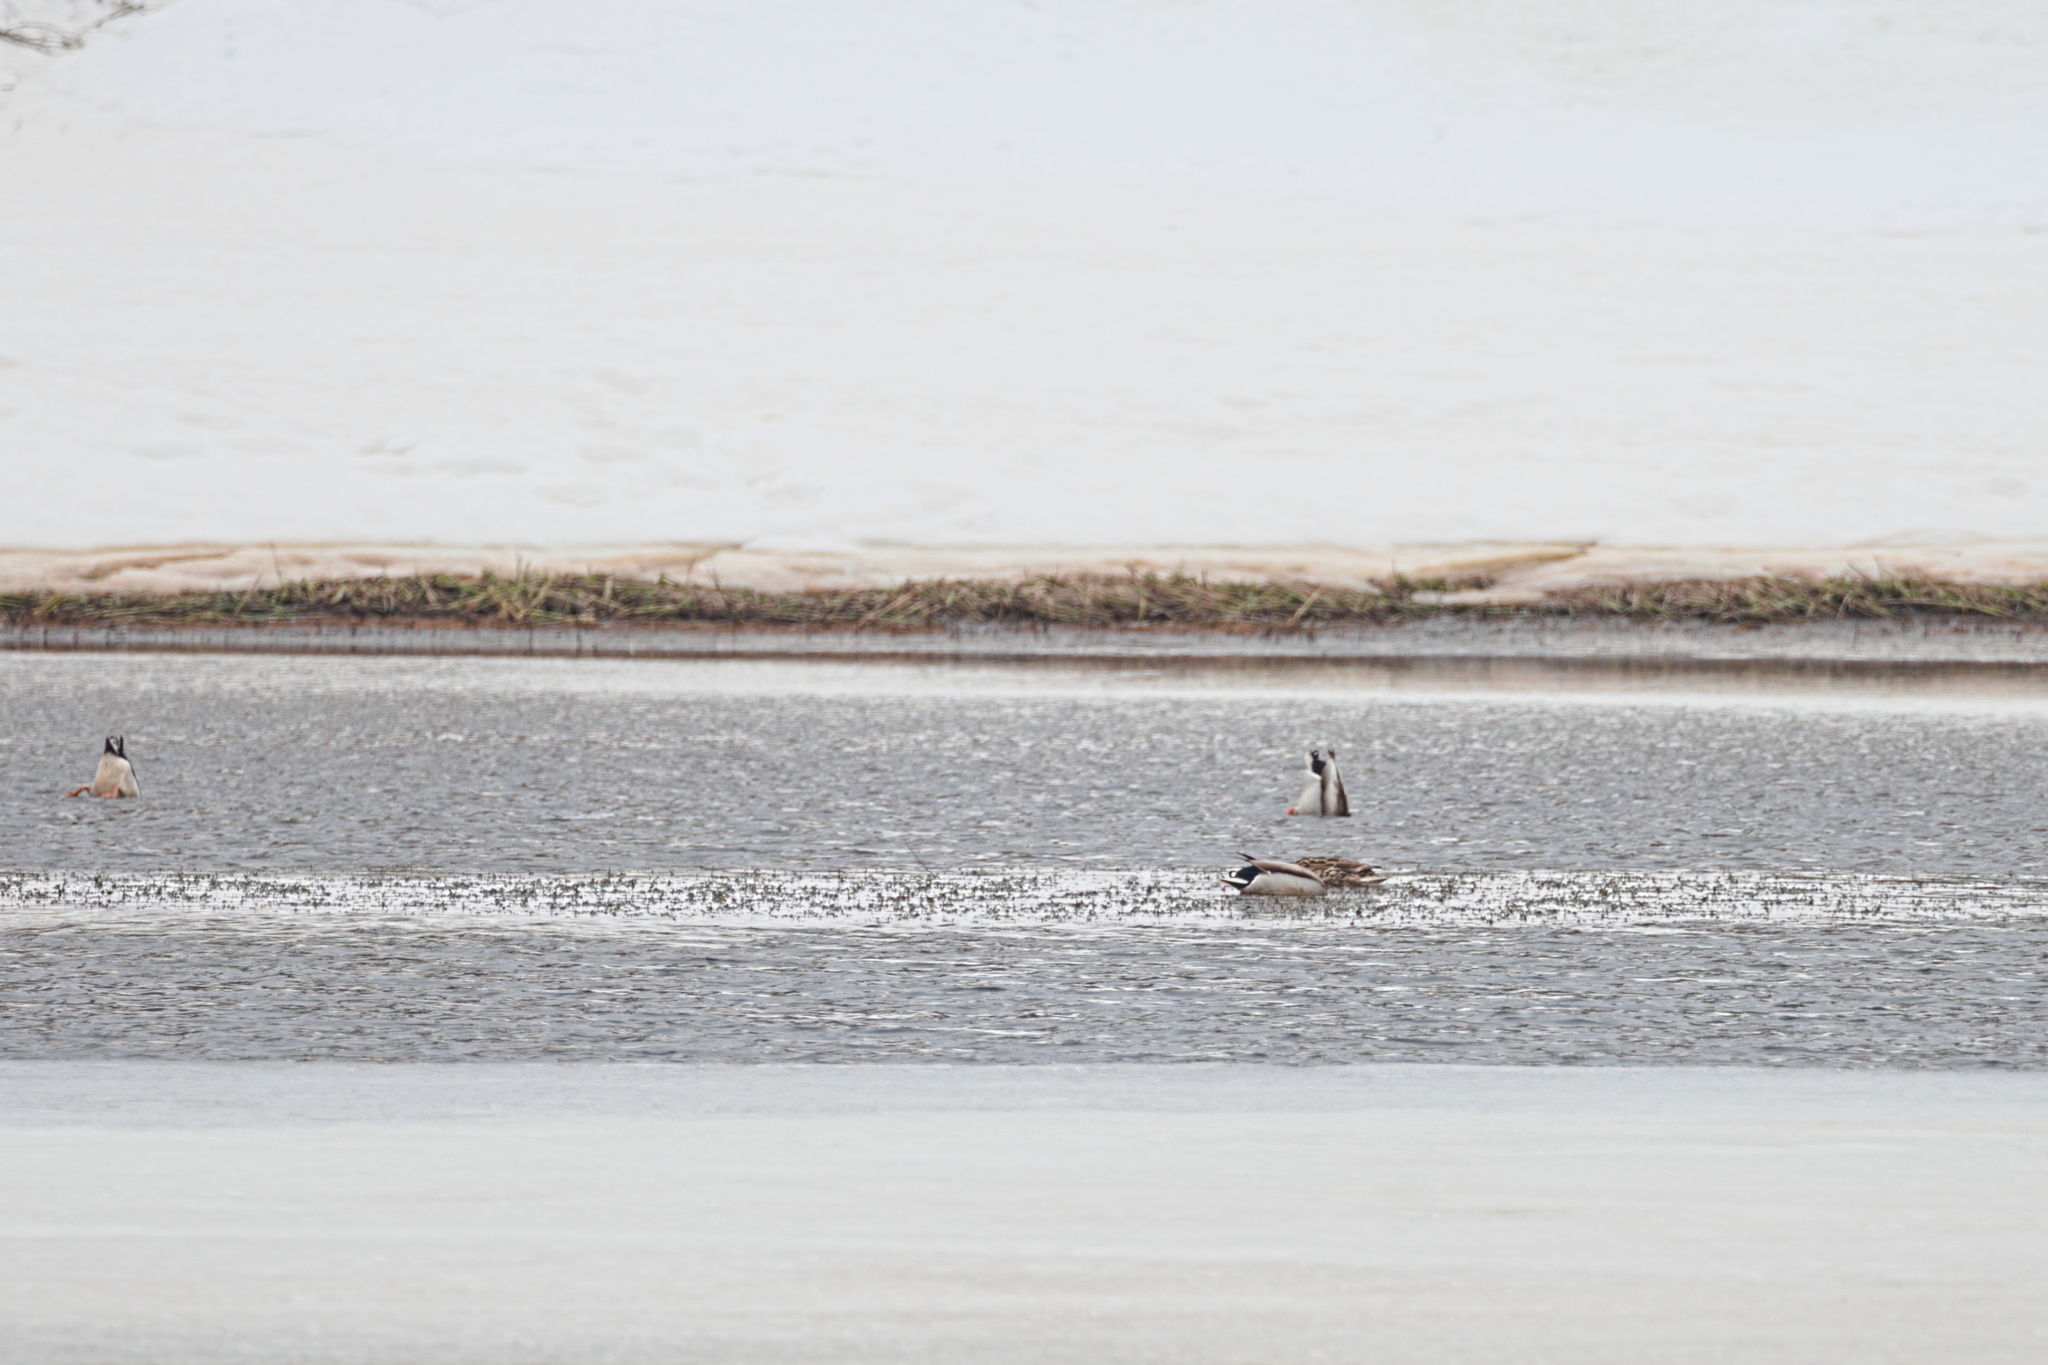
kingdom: Animalia
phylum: Chordata
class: Aves
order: Anseriformes
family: Anatidae
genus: Anas
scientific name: Anas platyrhynchos
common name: Mallard
